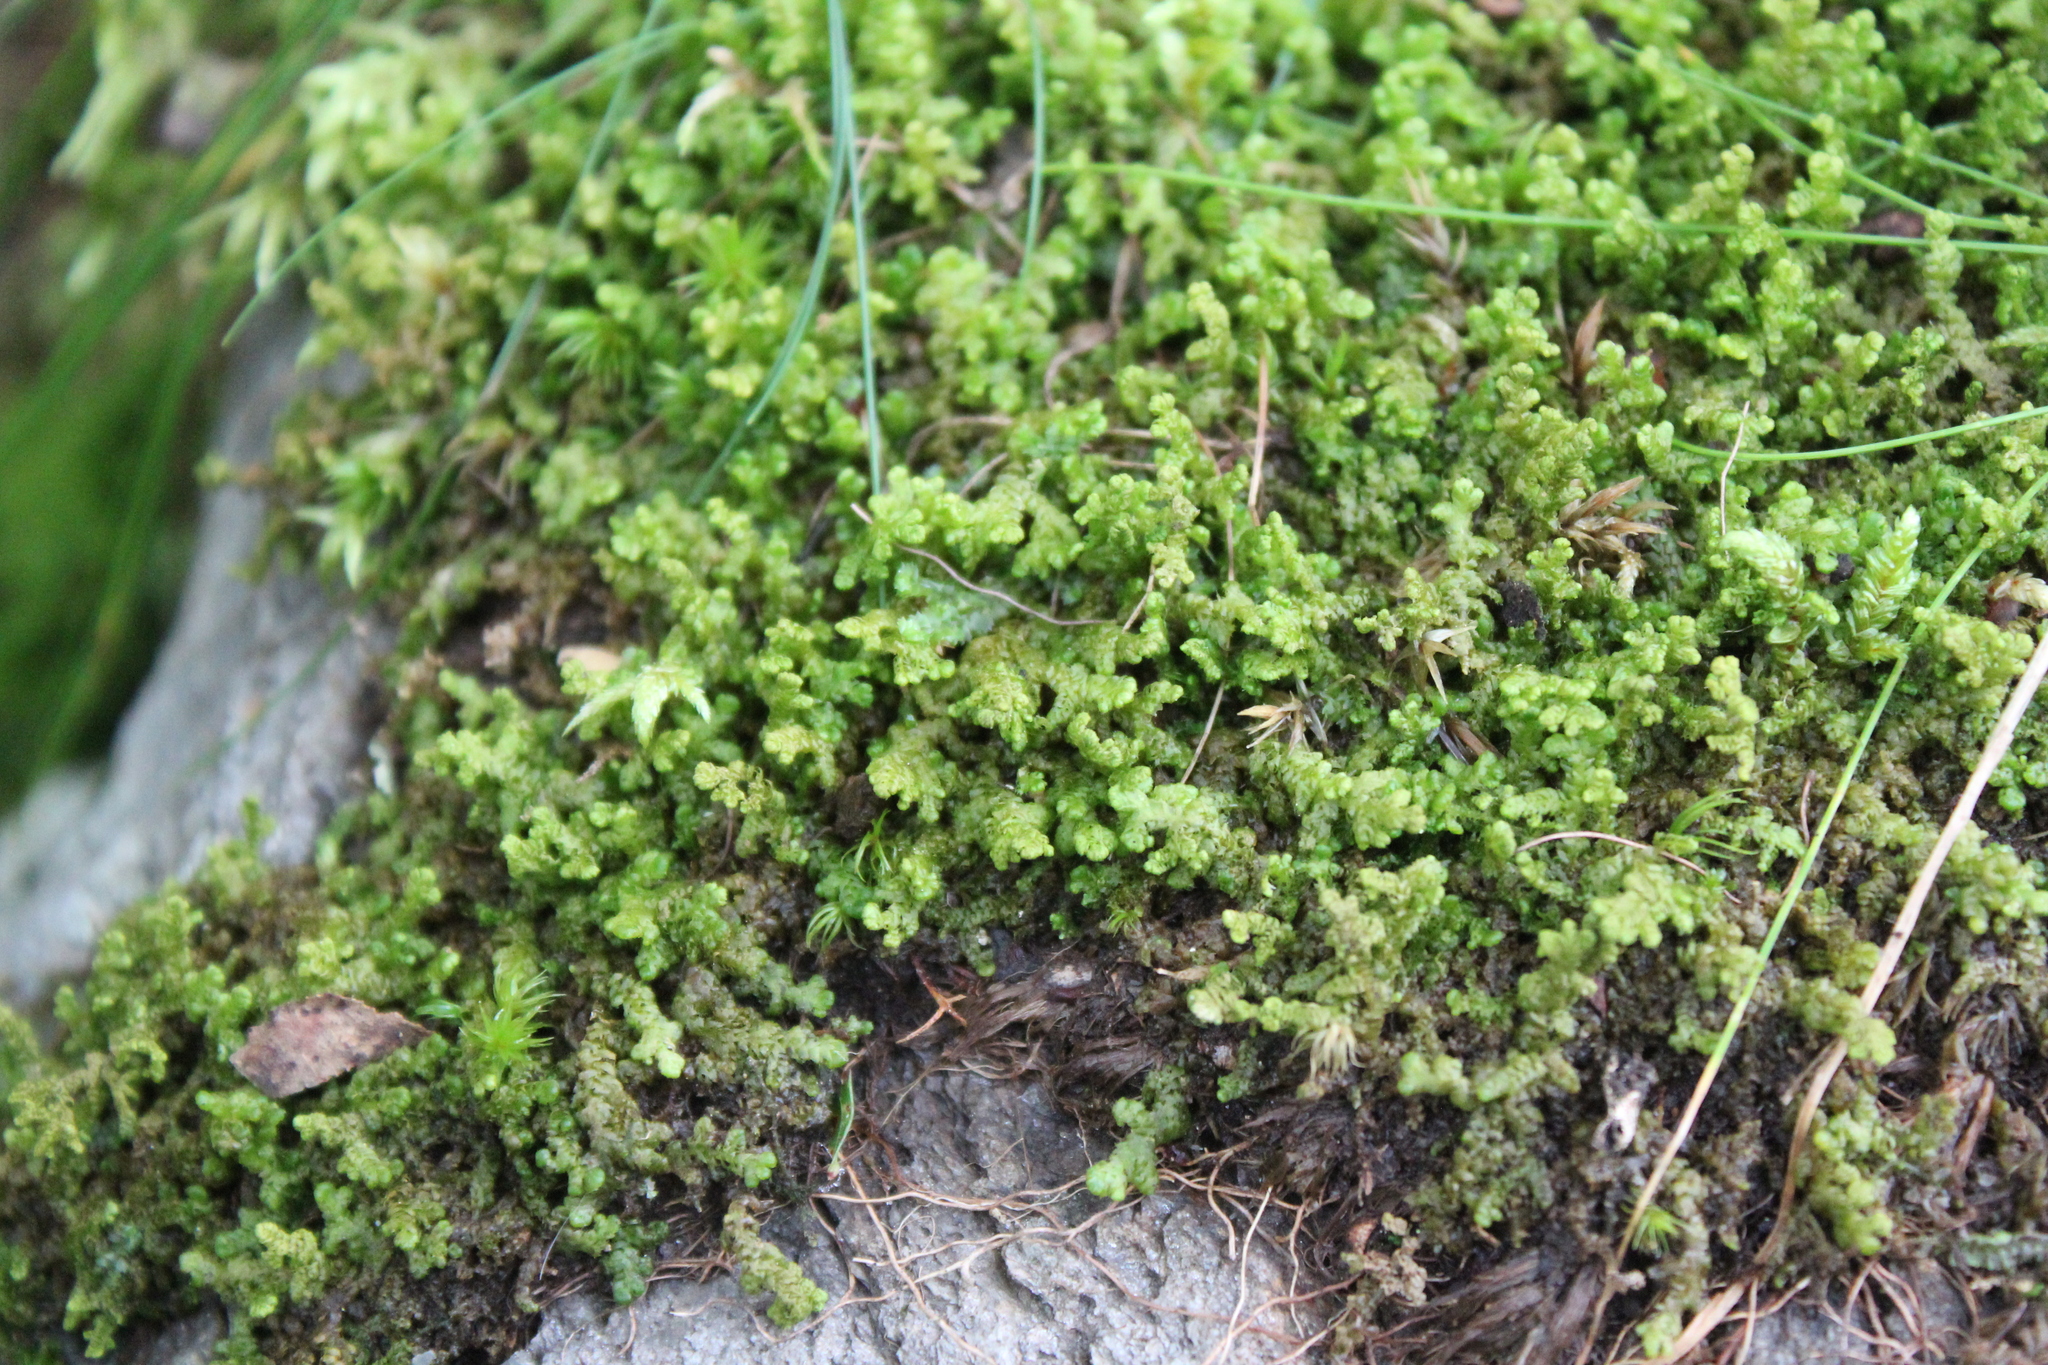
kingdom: Plantae
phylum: Marchantiophyta
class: Jungermanniopsida
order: Ptilidiales
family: Ptilidiaceae
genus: Ptilidium
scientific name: Ptilidium ciliare
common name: Ciliate fringewort
